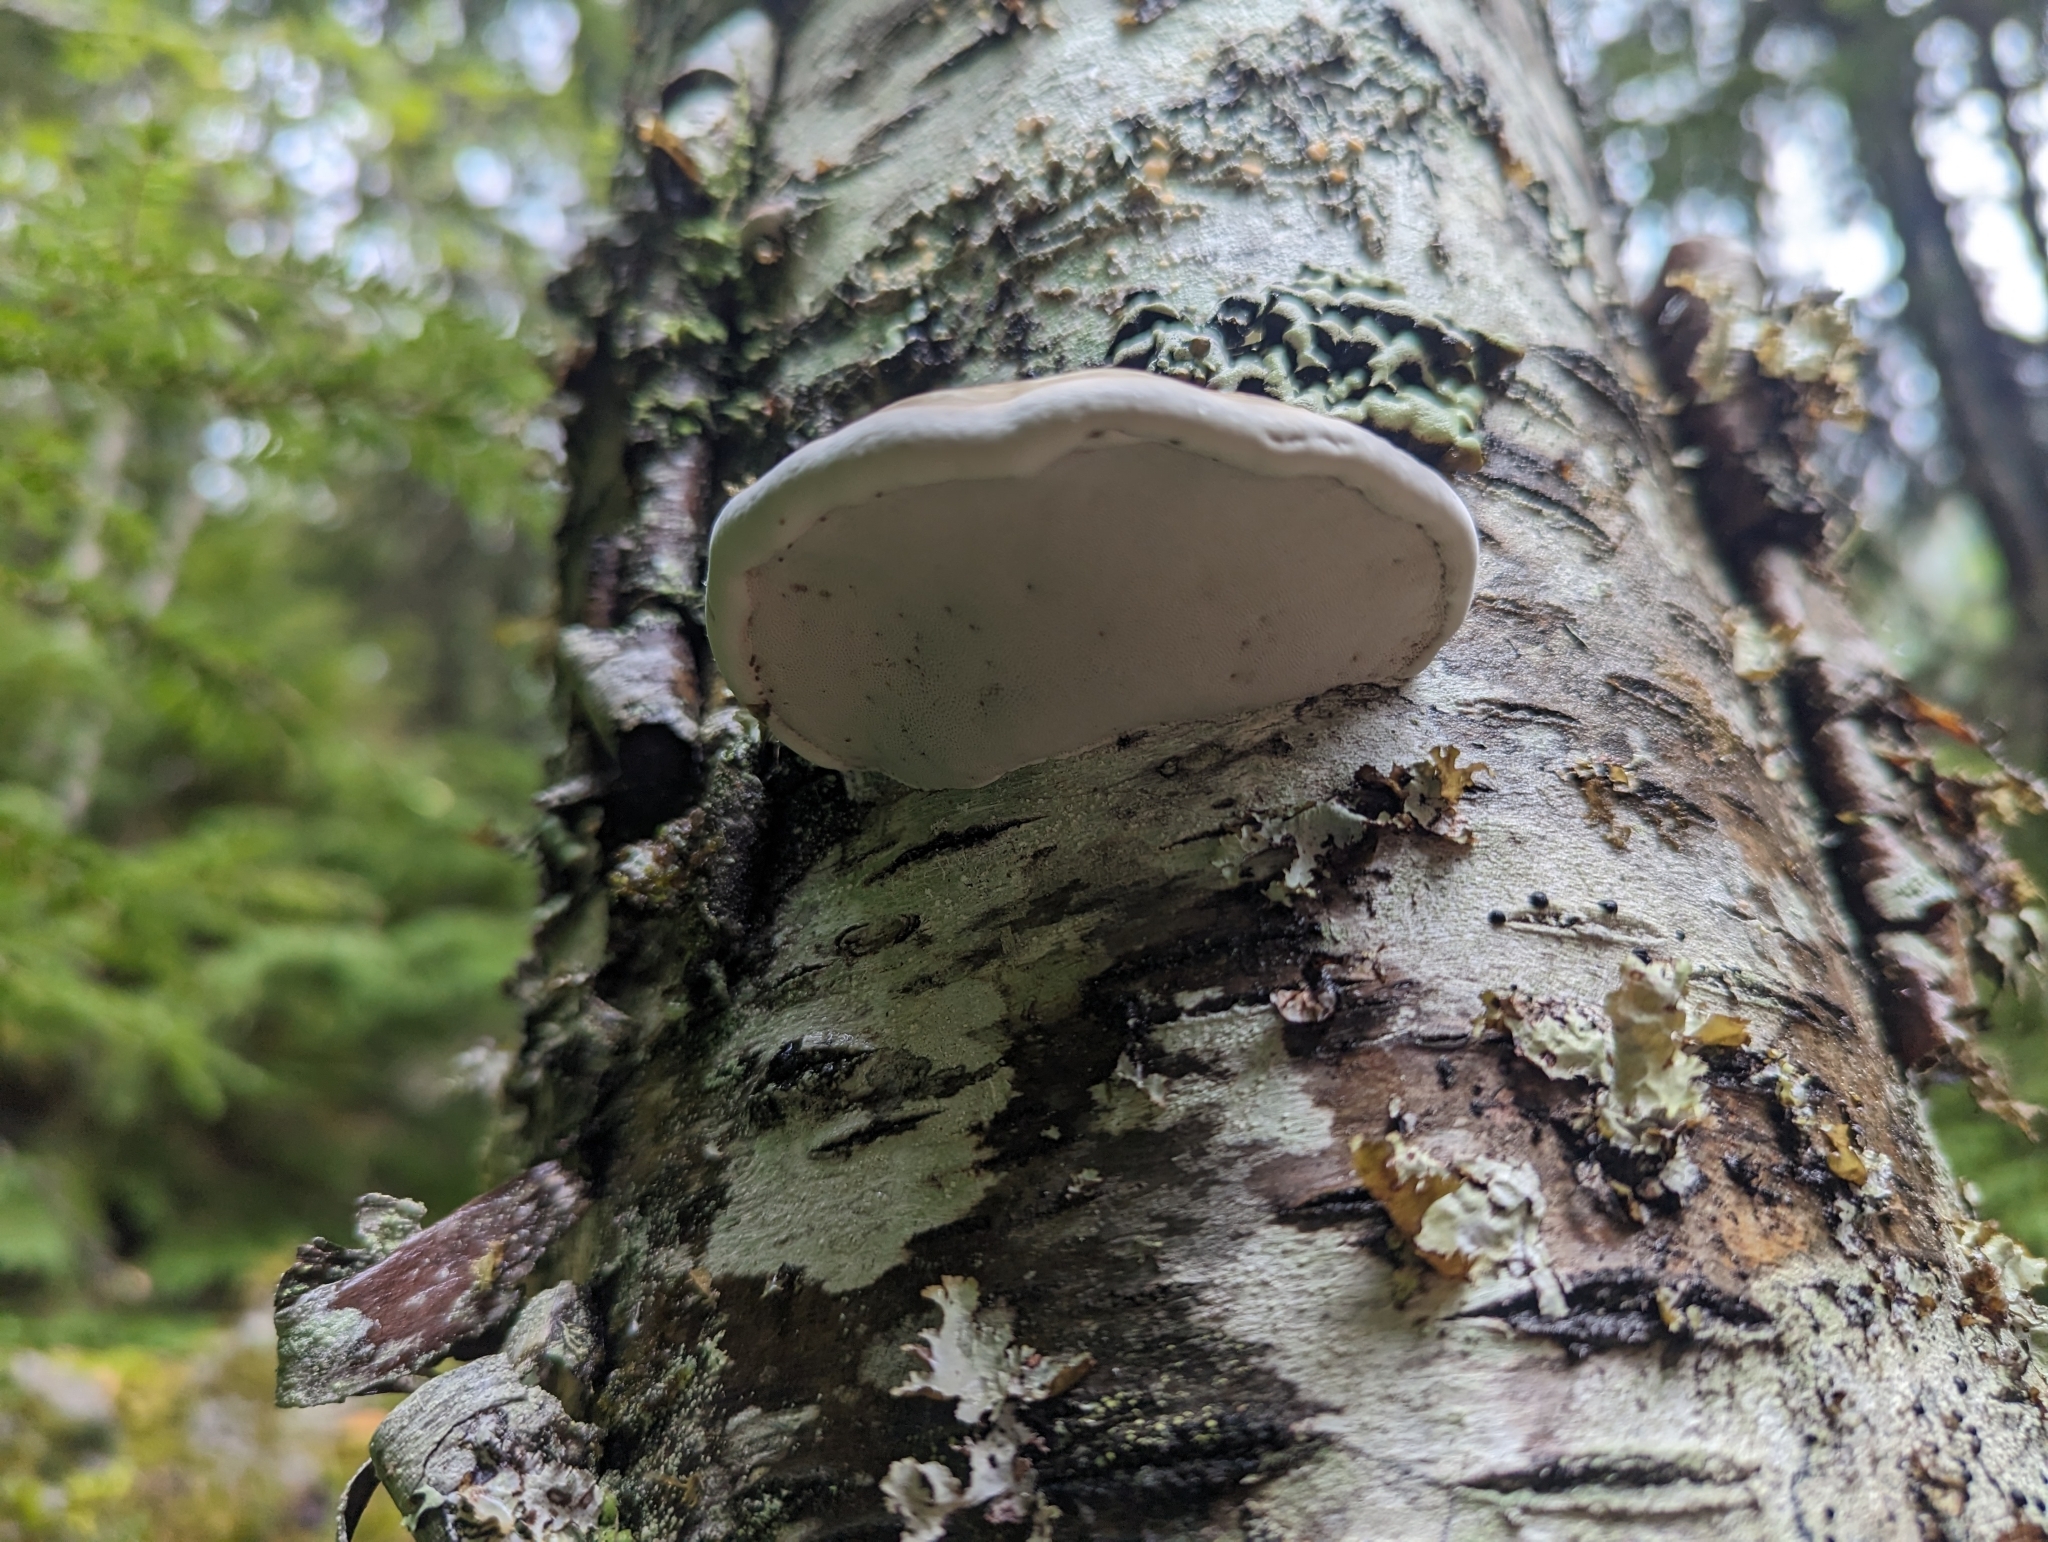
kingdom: Fungi
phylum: Basidiomycota
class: Agaricomycetes
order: Polyporales
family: Polyporaceae
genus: Fomes
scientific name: Fomes fomentarius
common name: Hoof fungus
